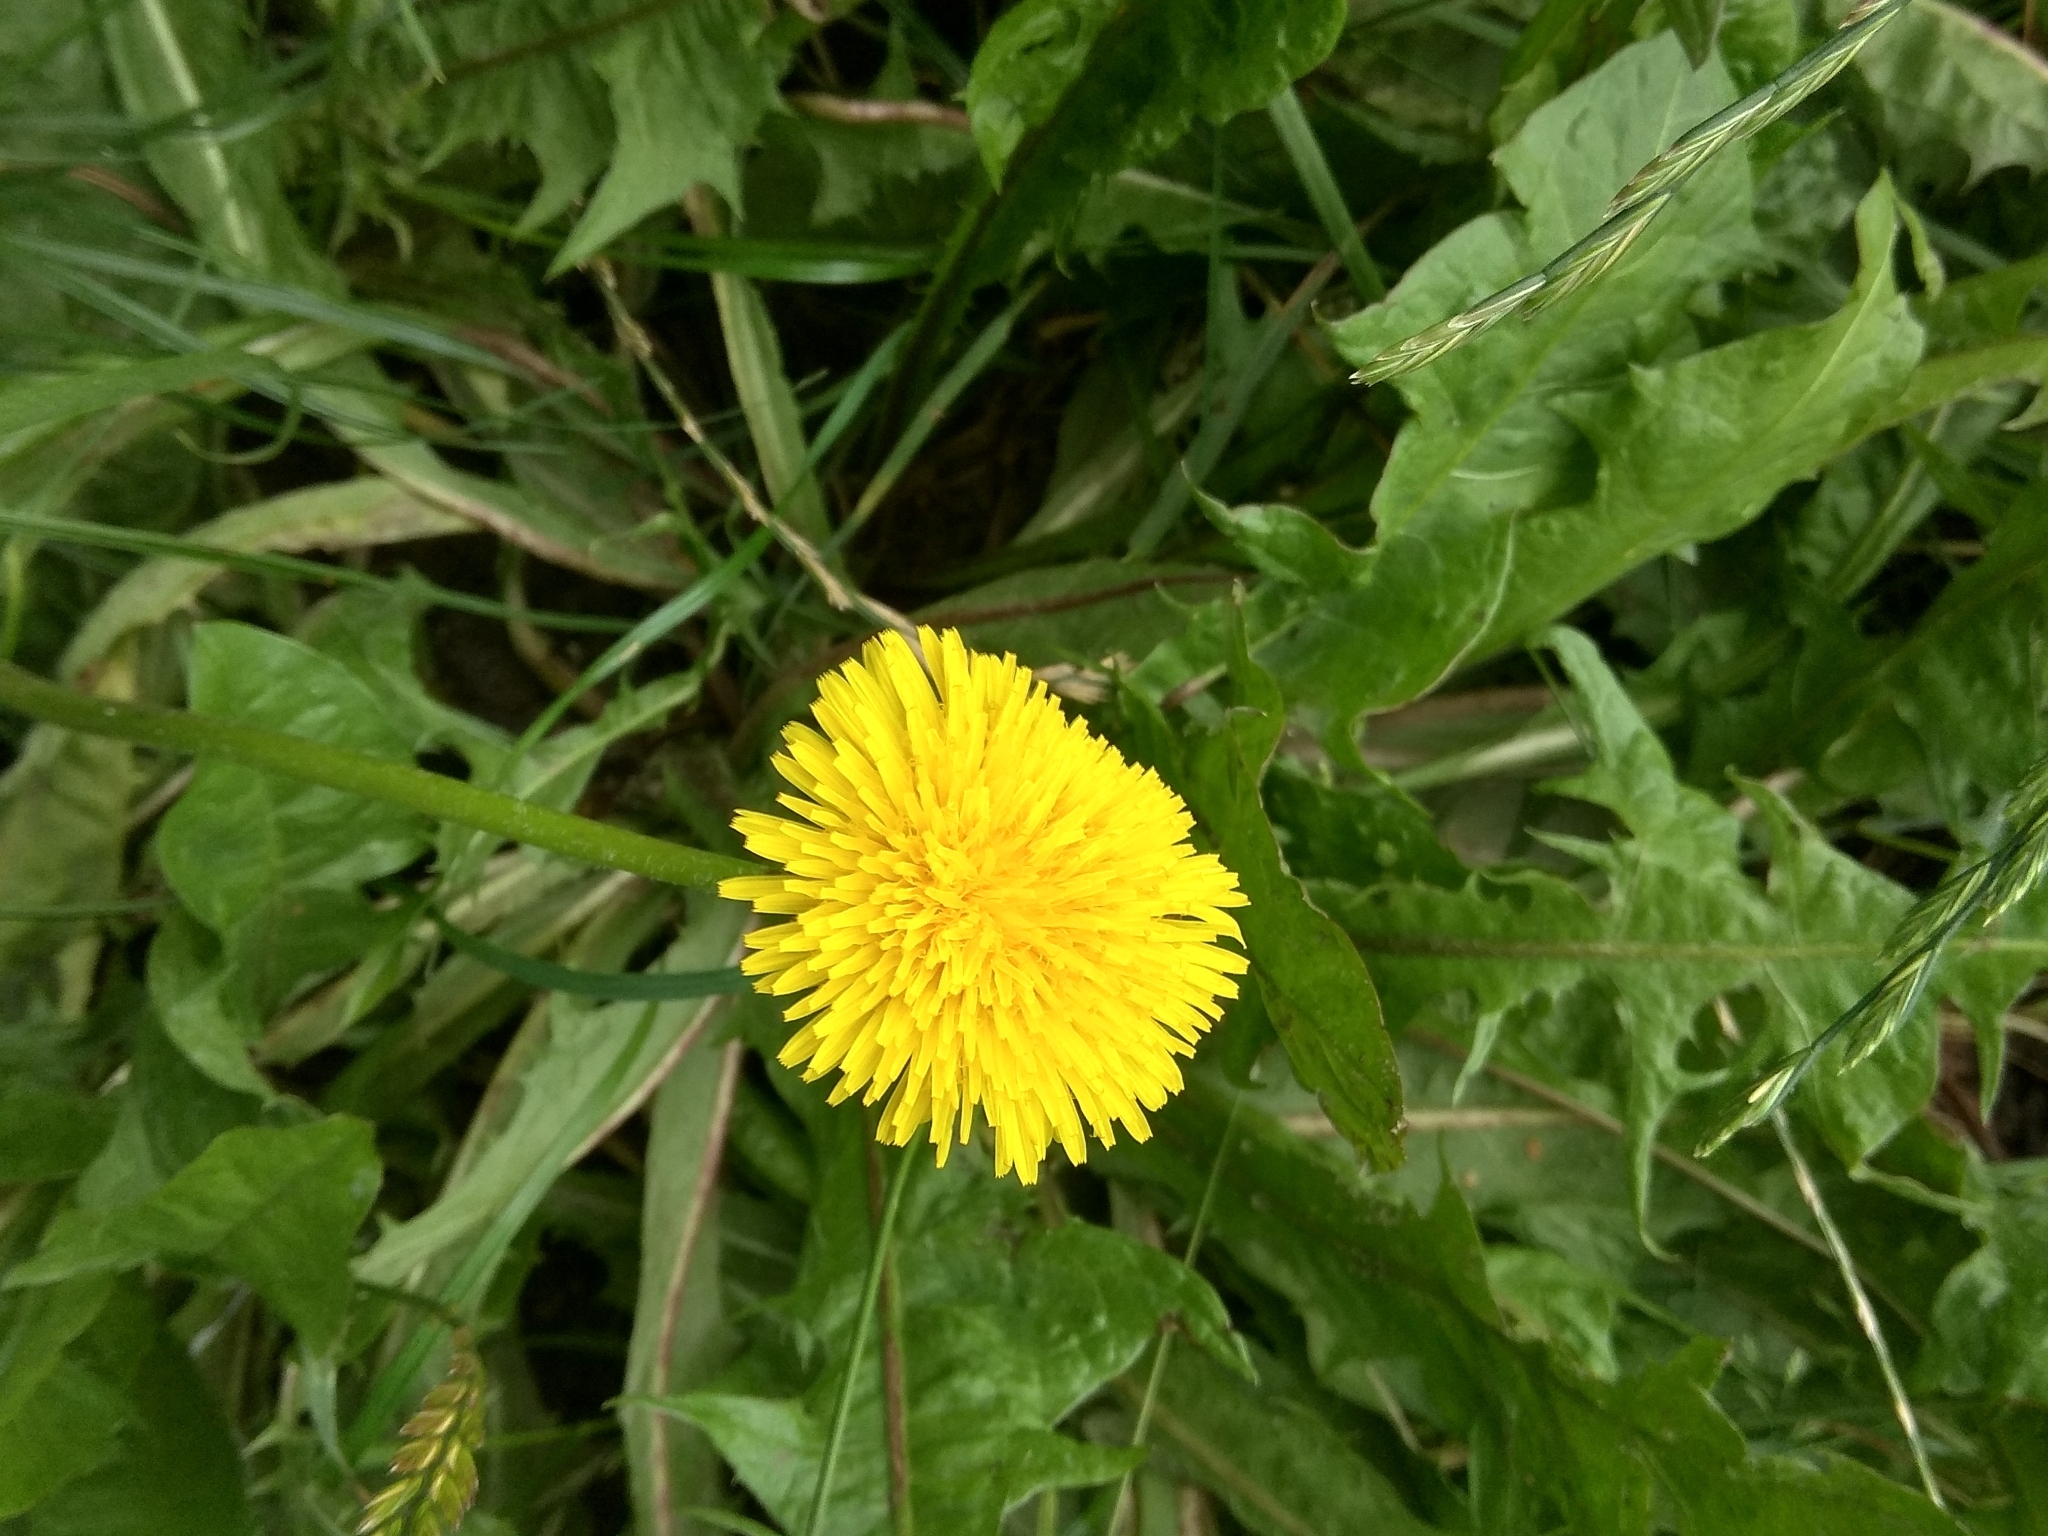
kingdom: Plantae
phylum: Tracheophyta
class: Magnoliopsida
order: Asterales
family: Asteraceae
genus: Taraxacum
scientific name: Taraxacum officinale
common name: Common dandelion
